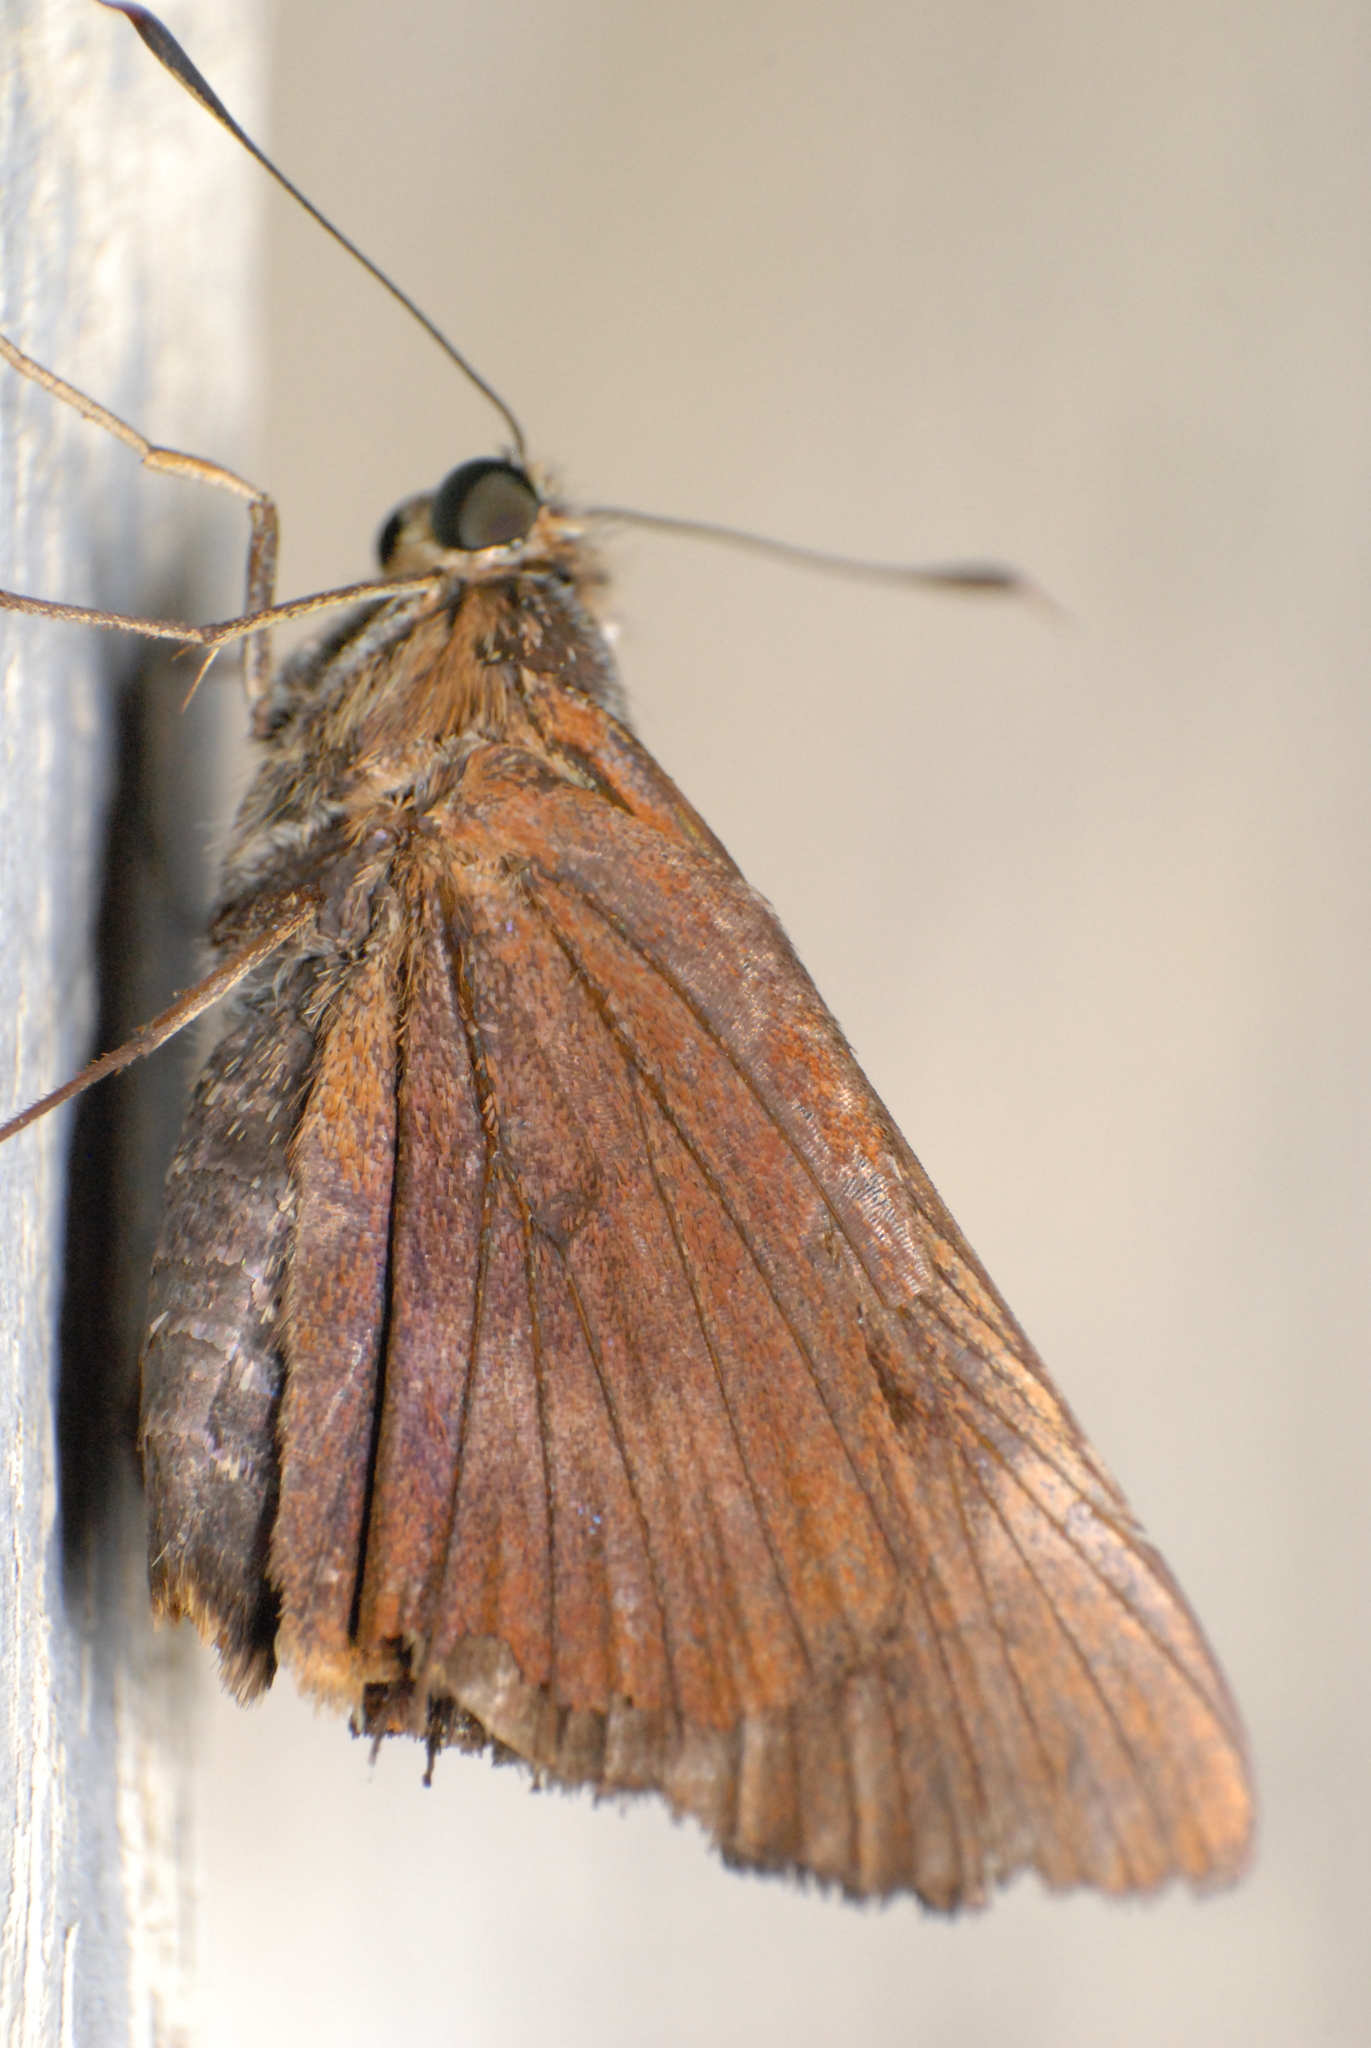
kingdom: Animalia
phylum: Arthropoda
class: Insecta
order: Lepidoptera
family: Hesperiidae
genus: Cephrenes
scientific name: Cephrenes augiades
